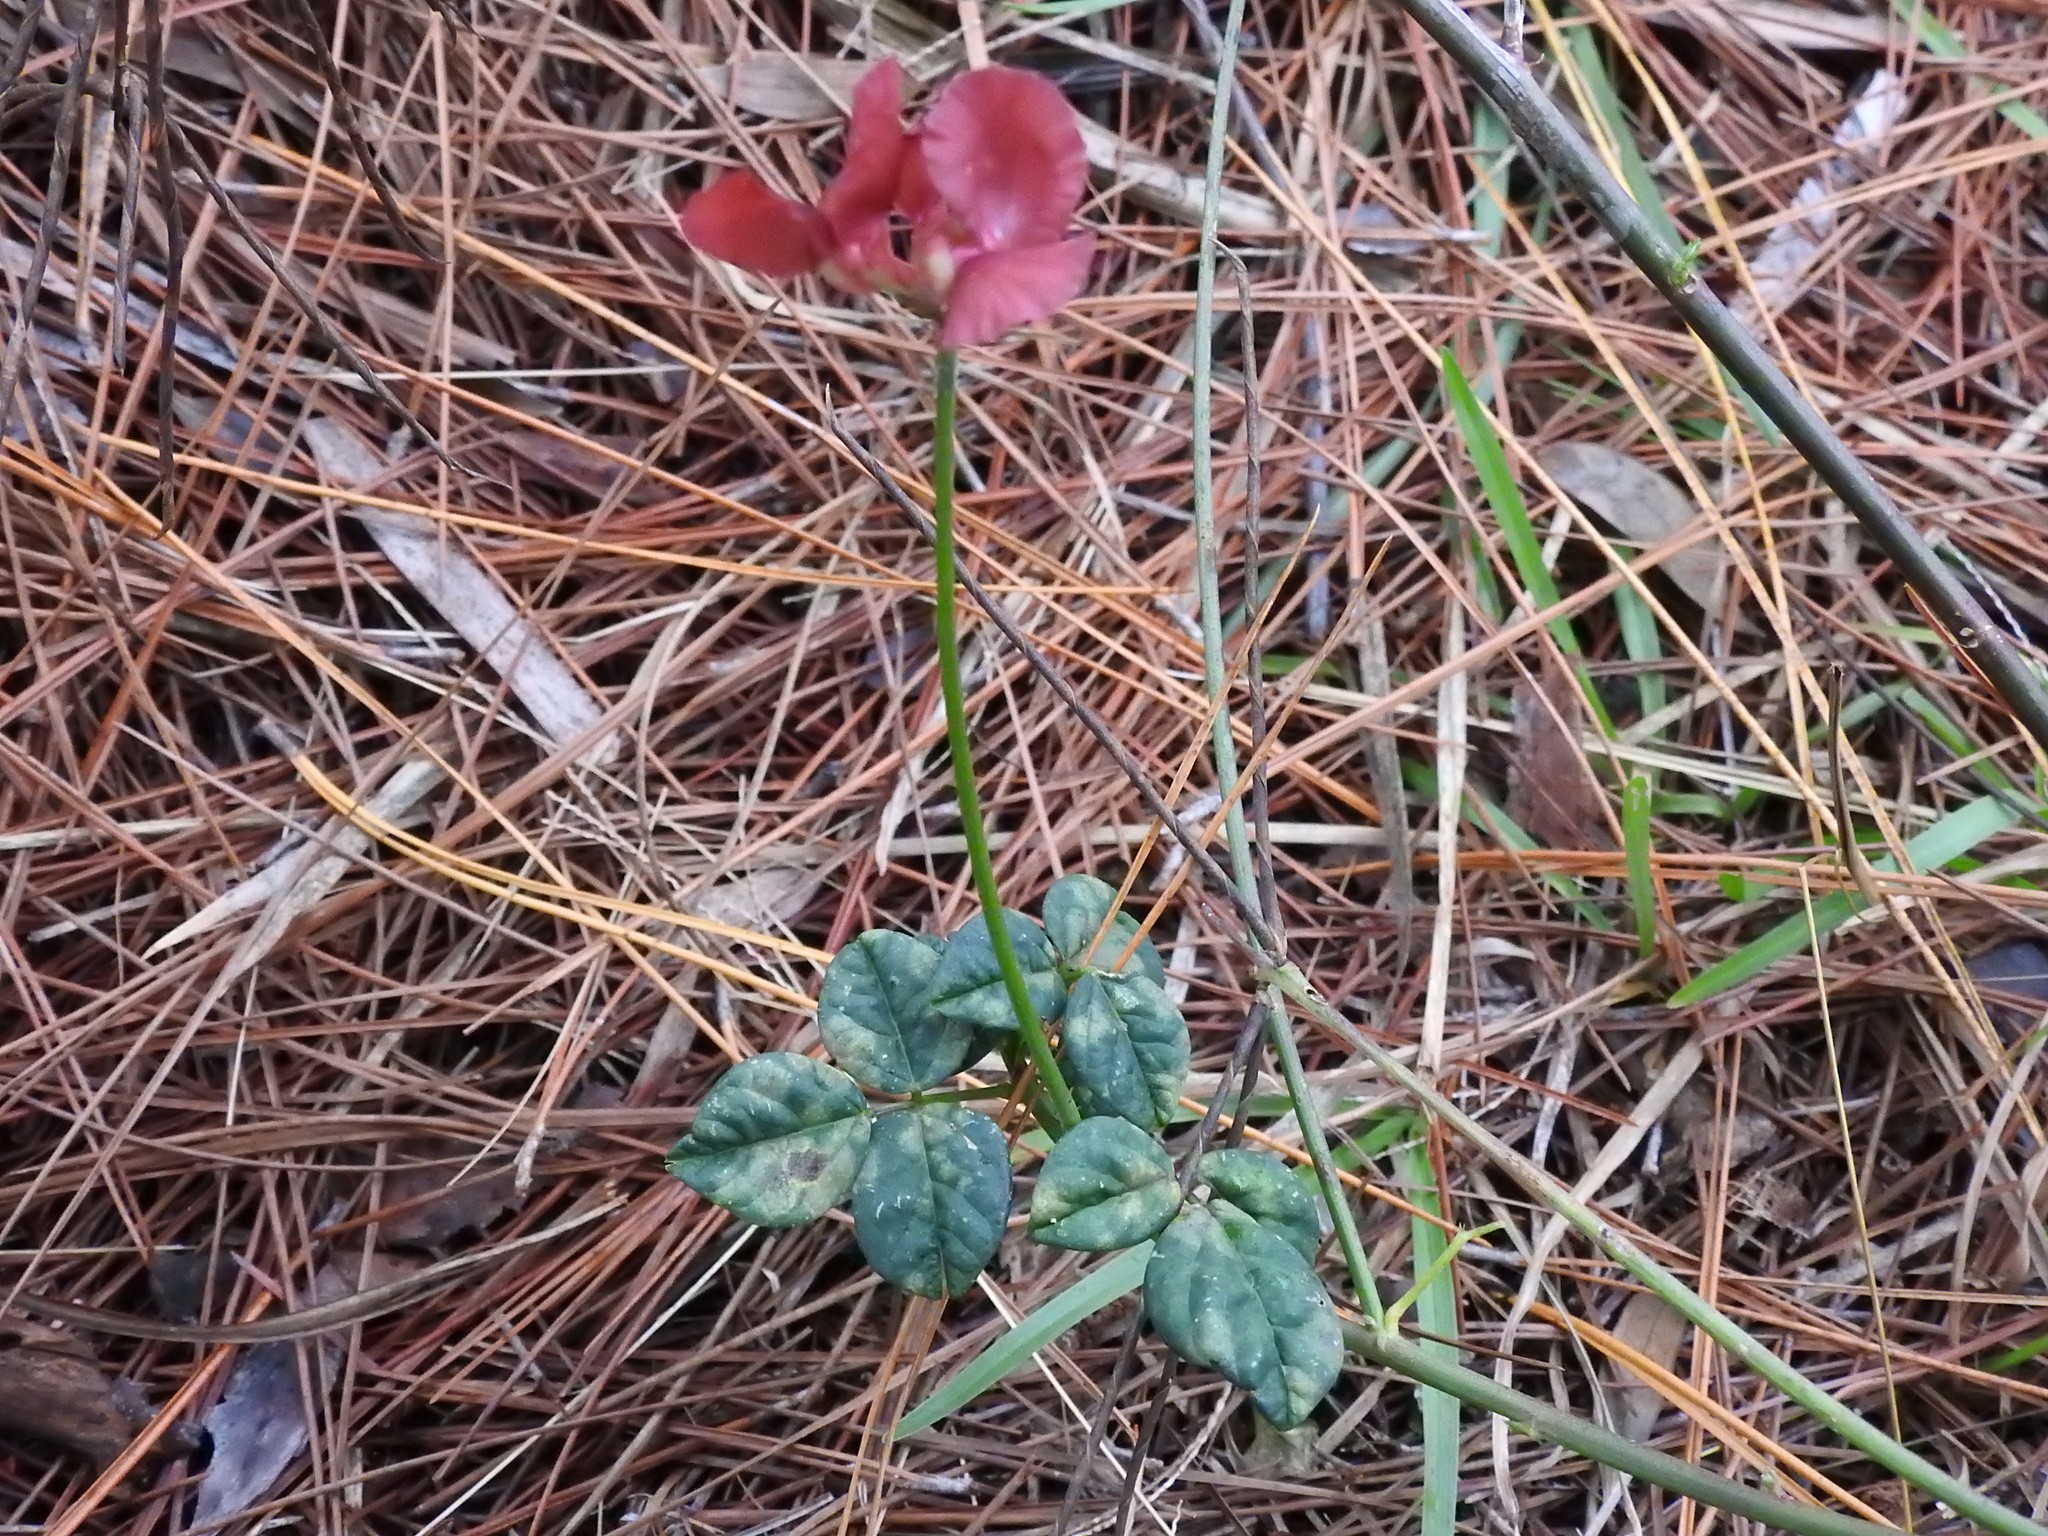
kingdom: Plantae
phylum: Tracheophyta
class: Magnoliopsida
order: Fabales
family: Fabaceae
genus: Macroptilium
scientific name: Macroptilium lathyroides
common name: Wild bushbean
